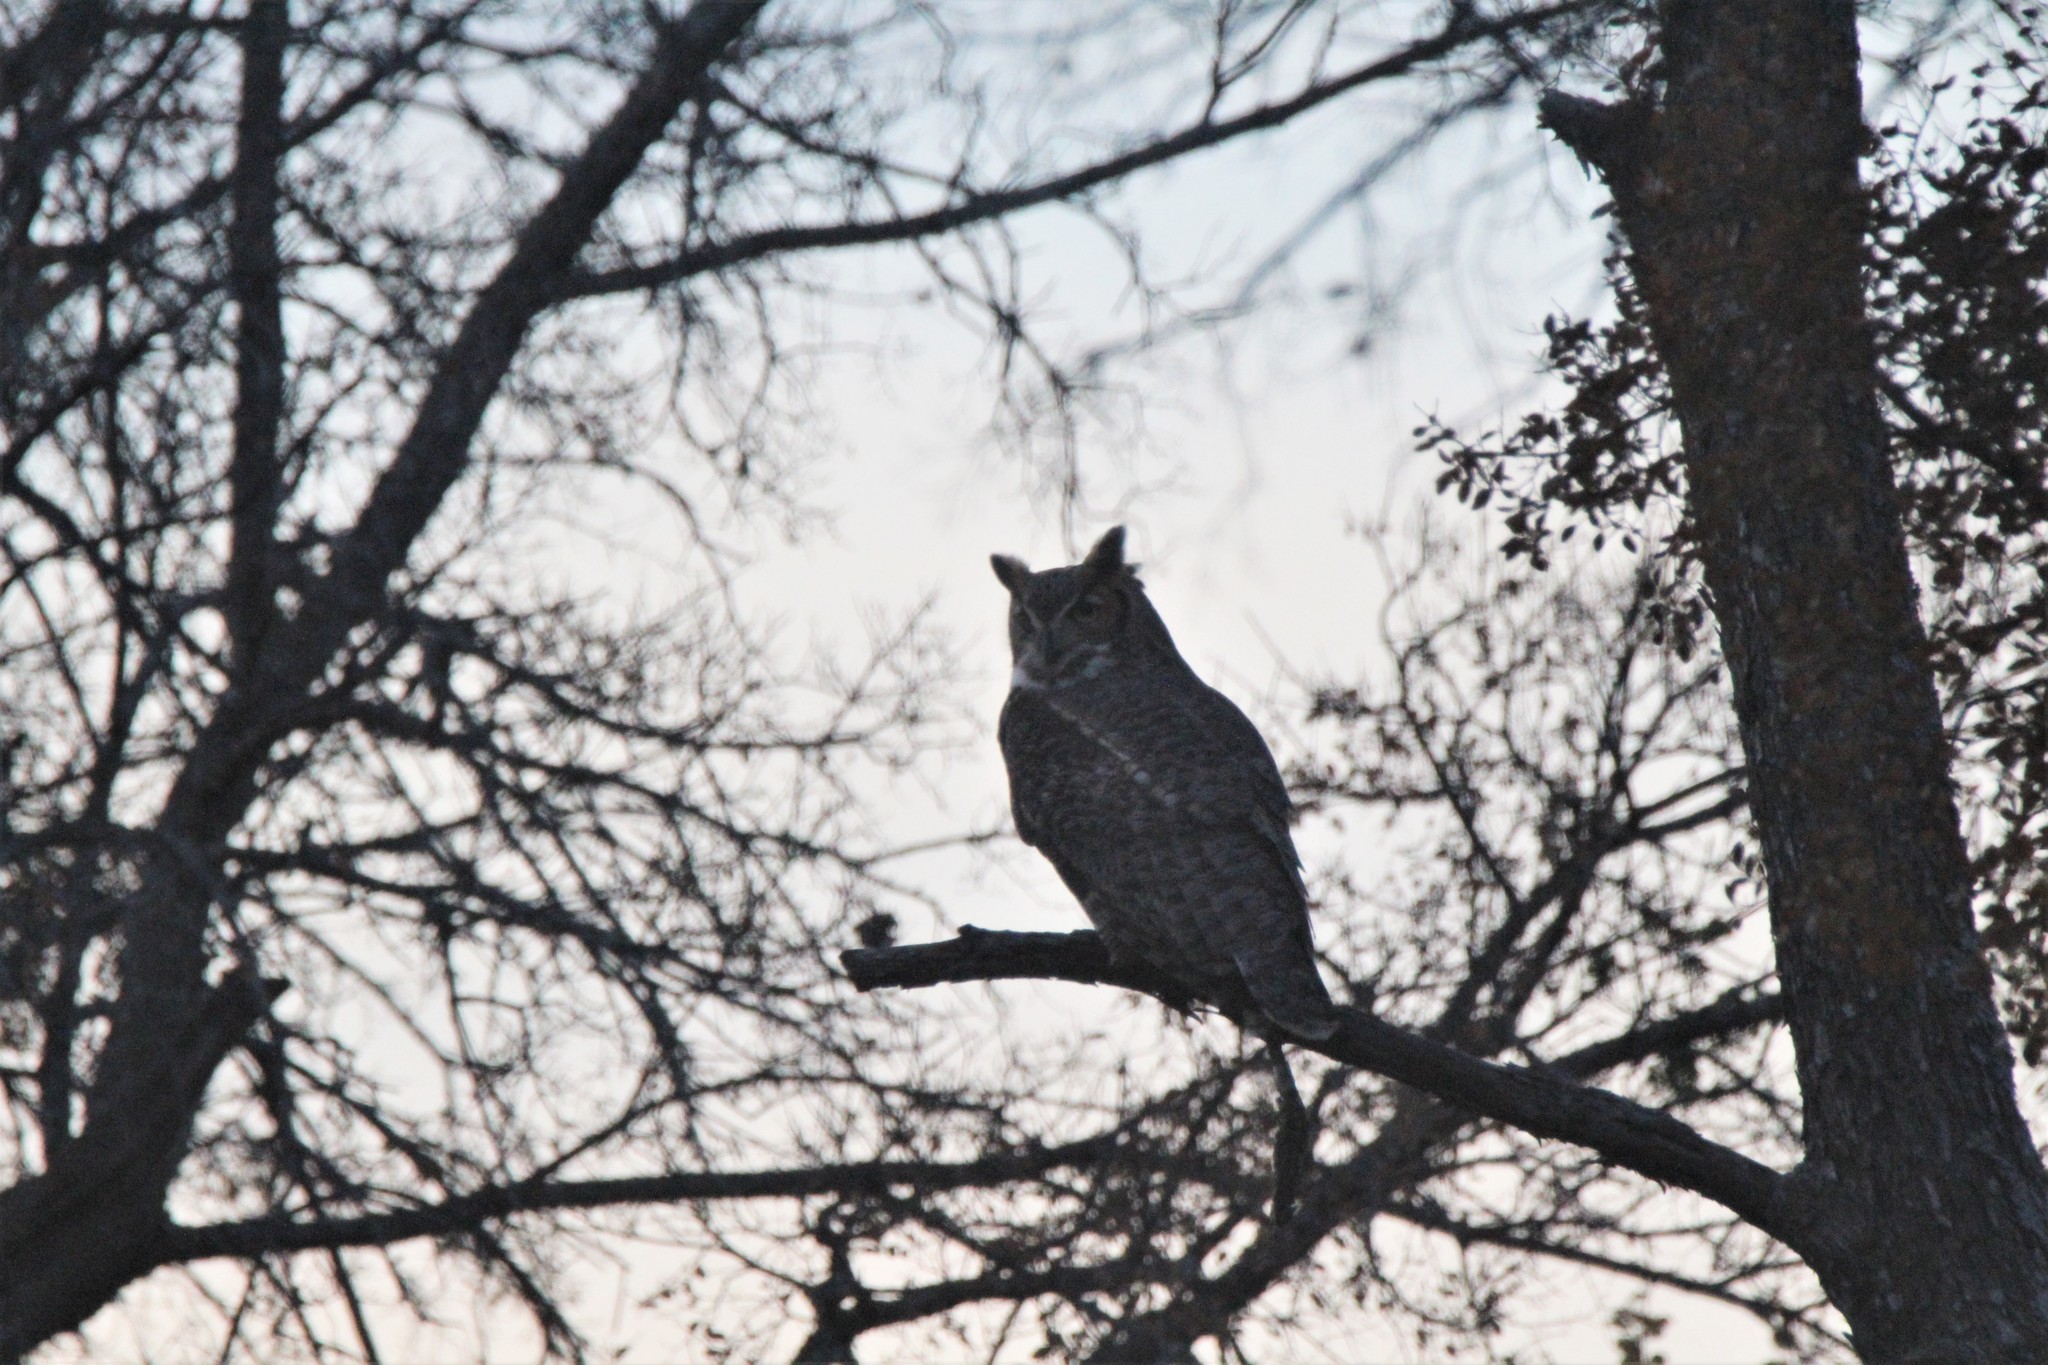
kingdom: Animalia
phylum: Chordata
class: Aves
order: Strigiformes
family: Strigidae
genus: Bubo
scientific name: Bubo virginianus
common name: Great horned owl
